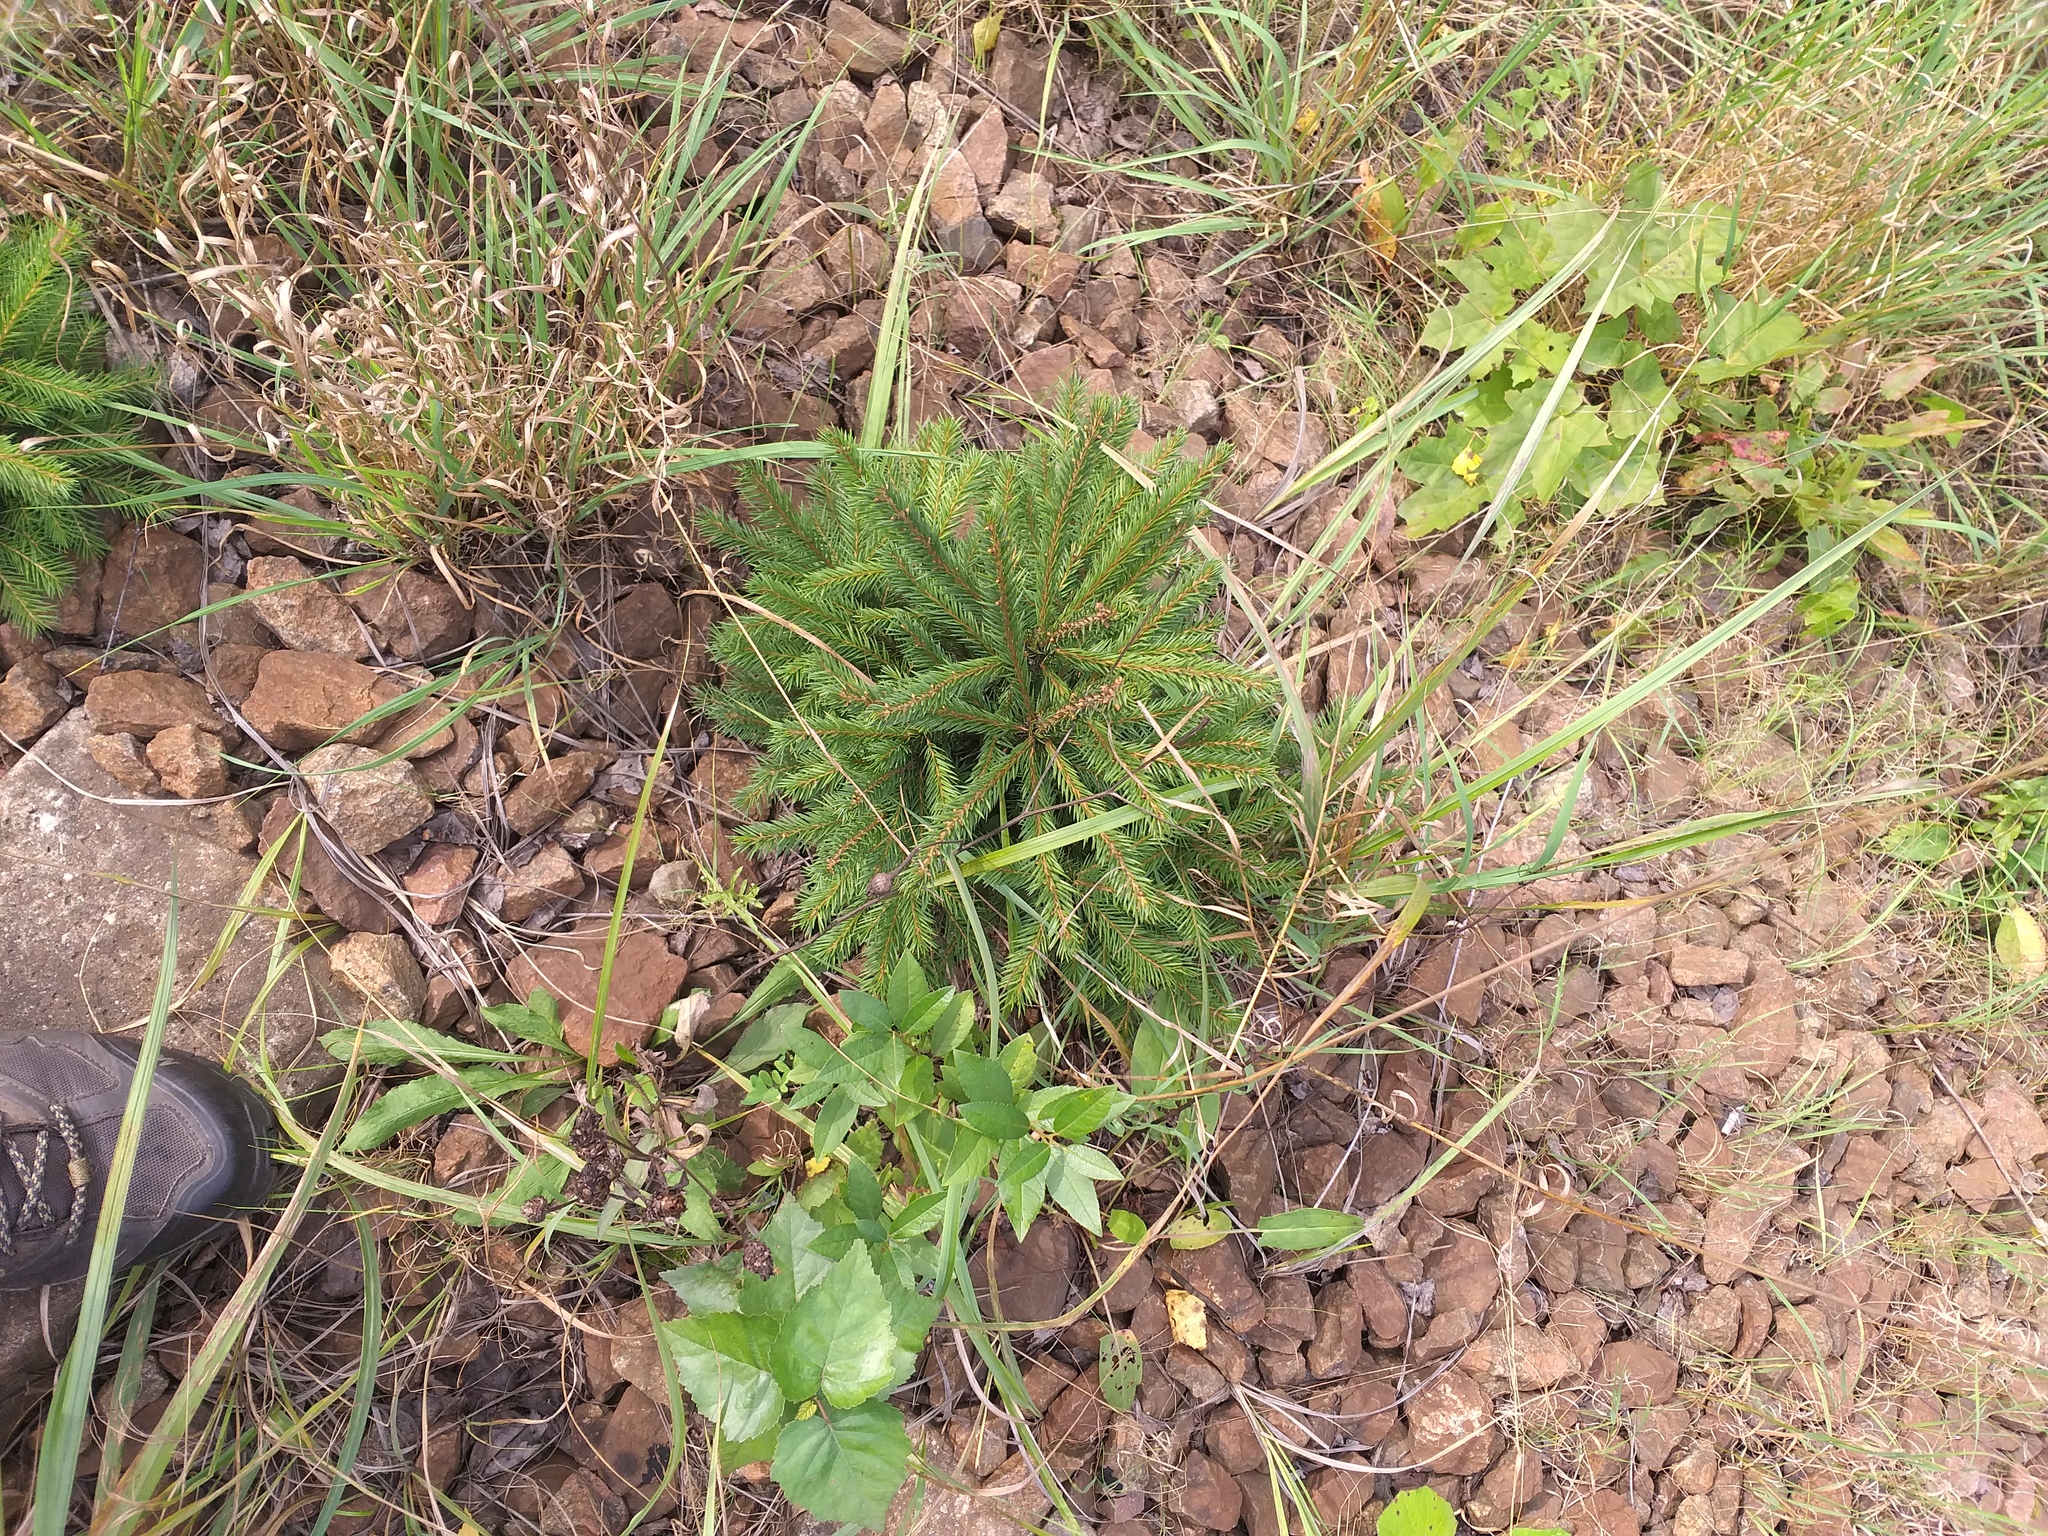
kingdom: Plantae
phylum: Tracheophyta
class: Pinopsida
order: Pinales
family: Pinaceae
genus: Picea
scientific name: Picea abies
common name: Norway spruce
